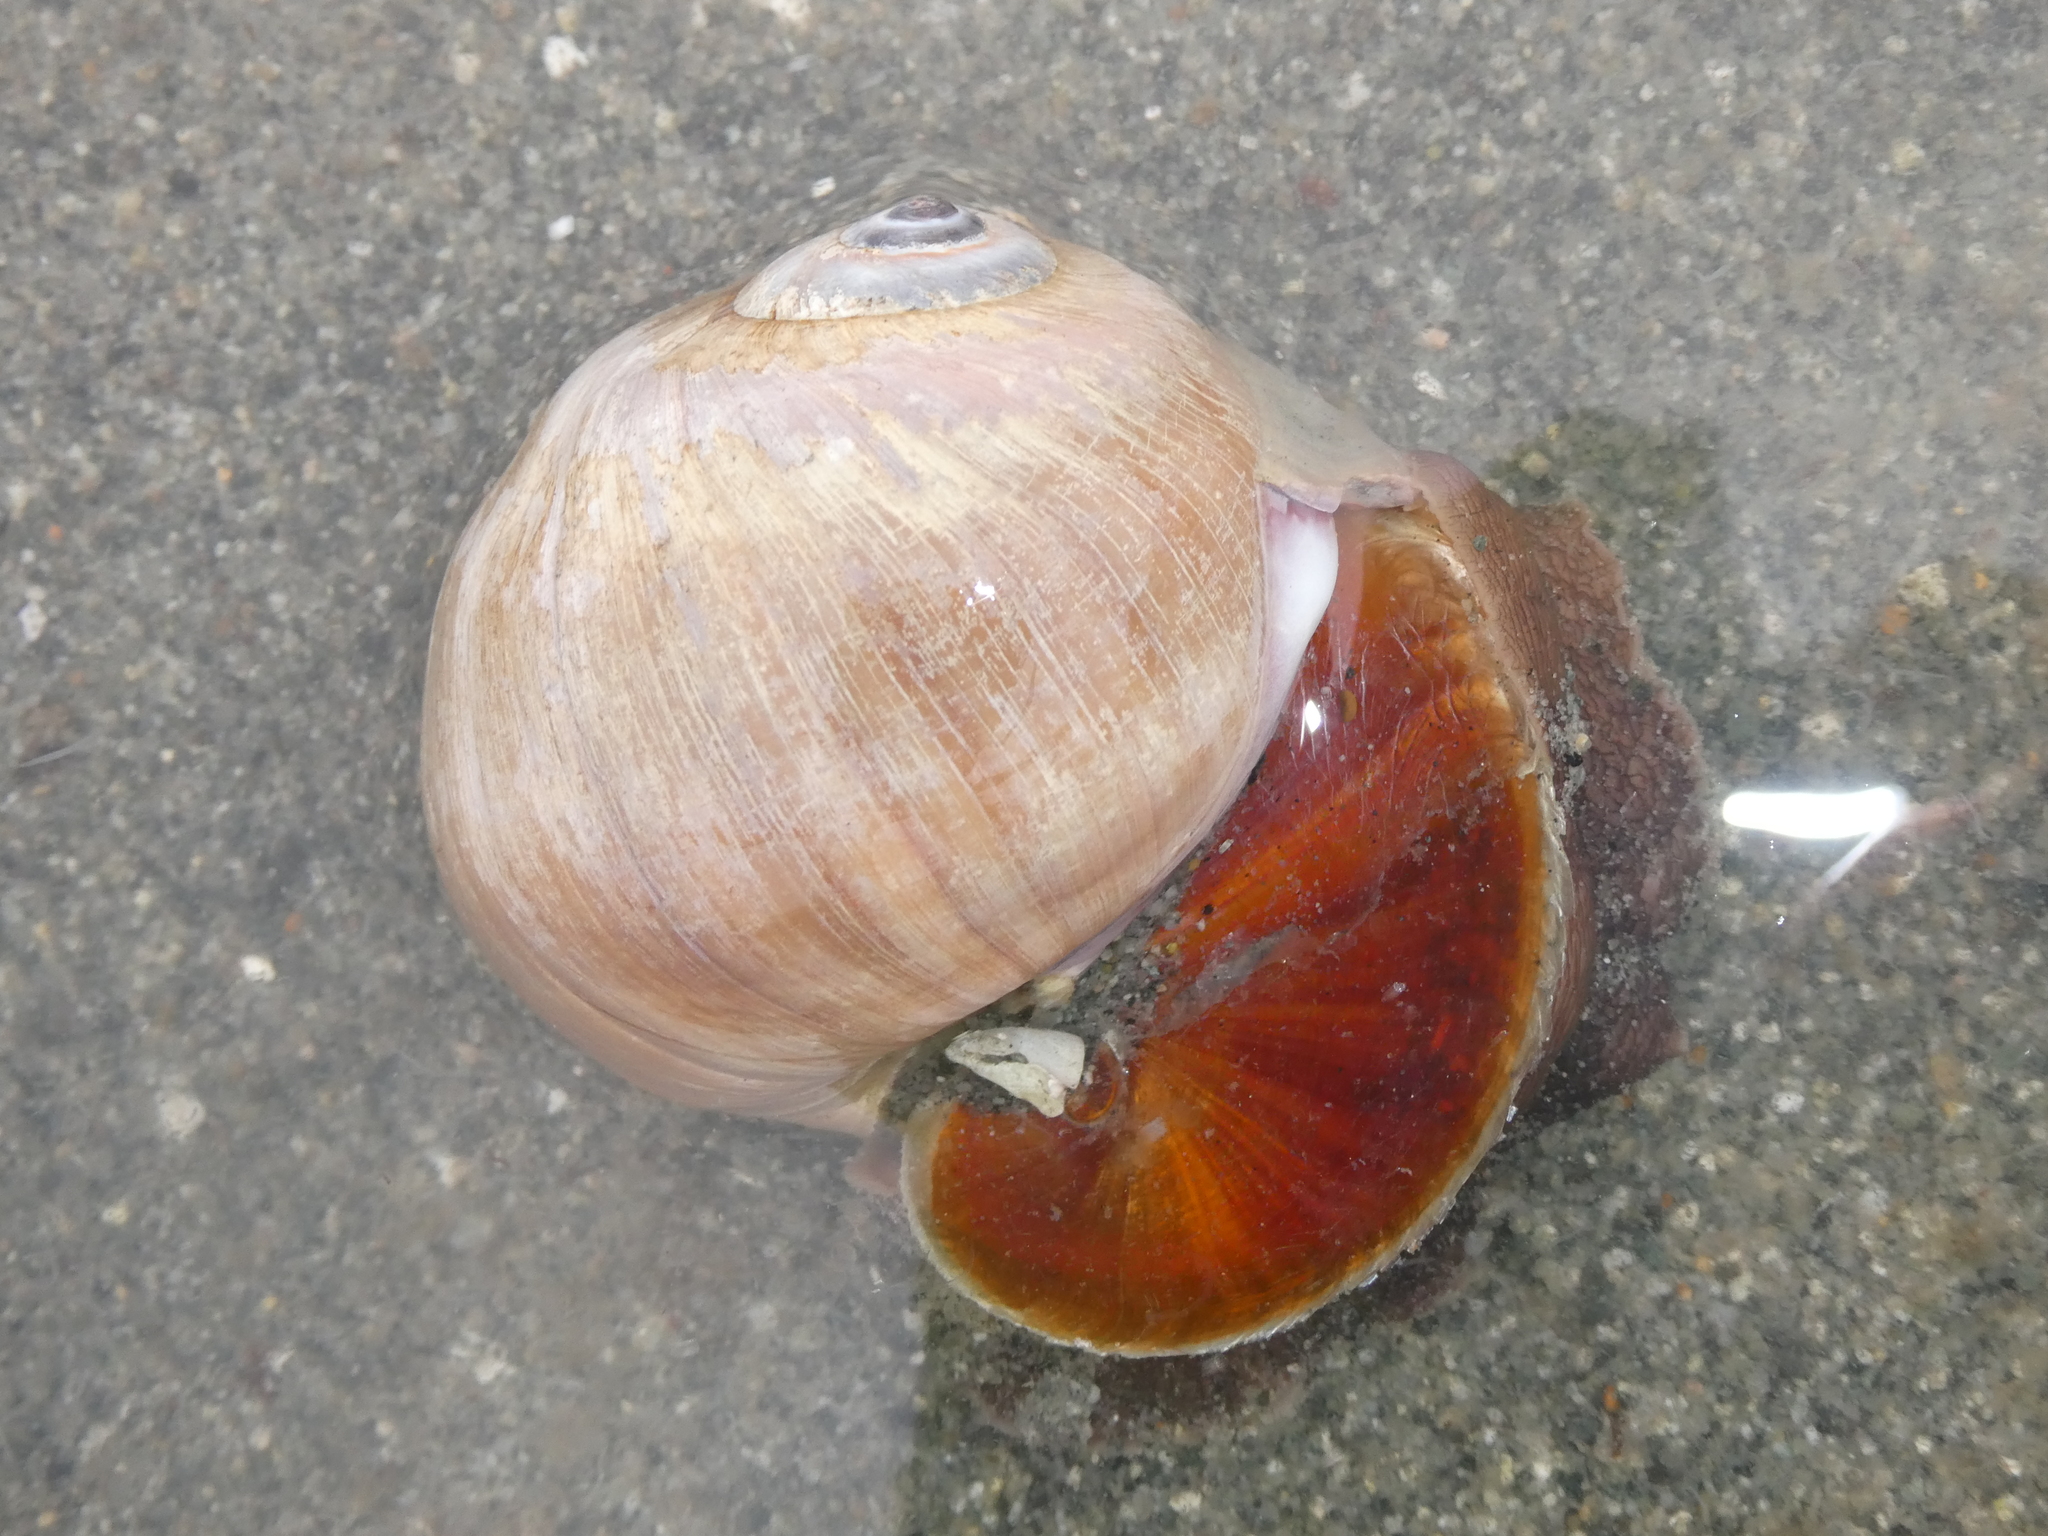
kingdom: Animalia
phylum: Mollusca
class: Gastropoda
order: Littorinimorpha
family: Naticidae
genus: Neverita
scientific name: Neverita lewisii
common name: Lewis' moonsnail
